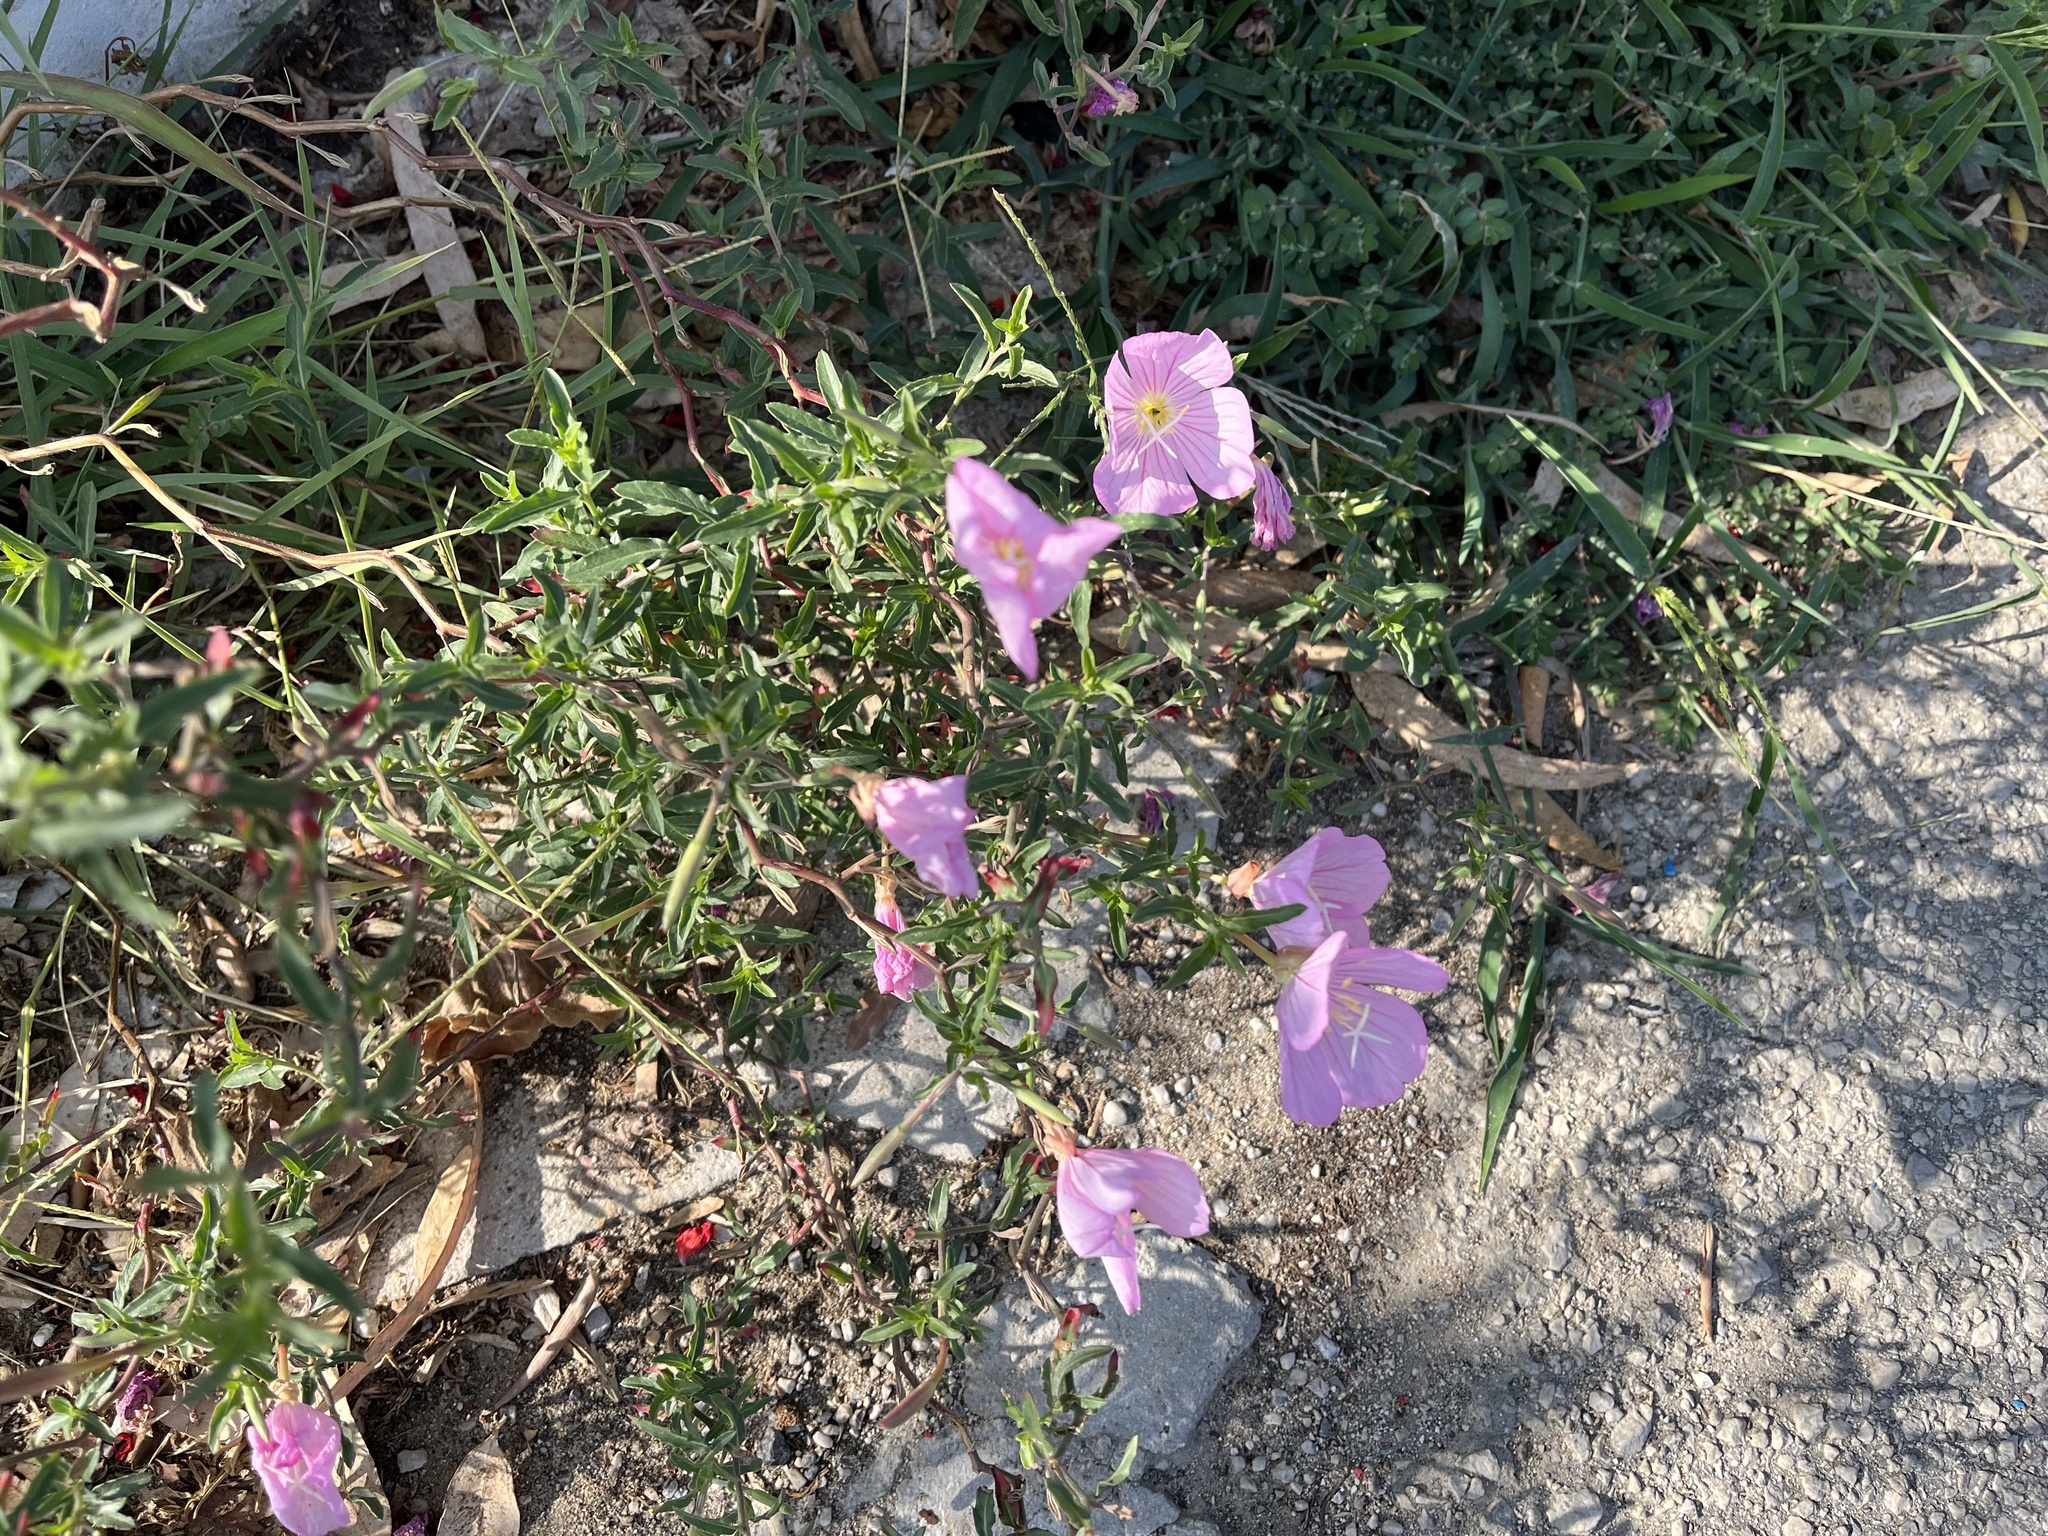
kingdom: Plantae
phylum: Tracheophyta
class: Magnoliopsida
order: Myrtales
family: Onagraceae
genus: Oenothera
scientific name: Oenothera speciosa
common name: White evening-primrose
